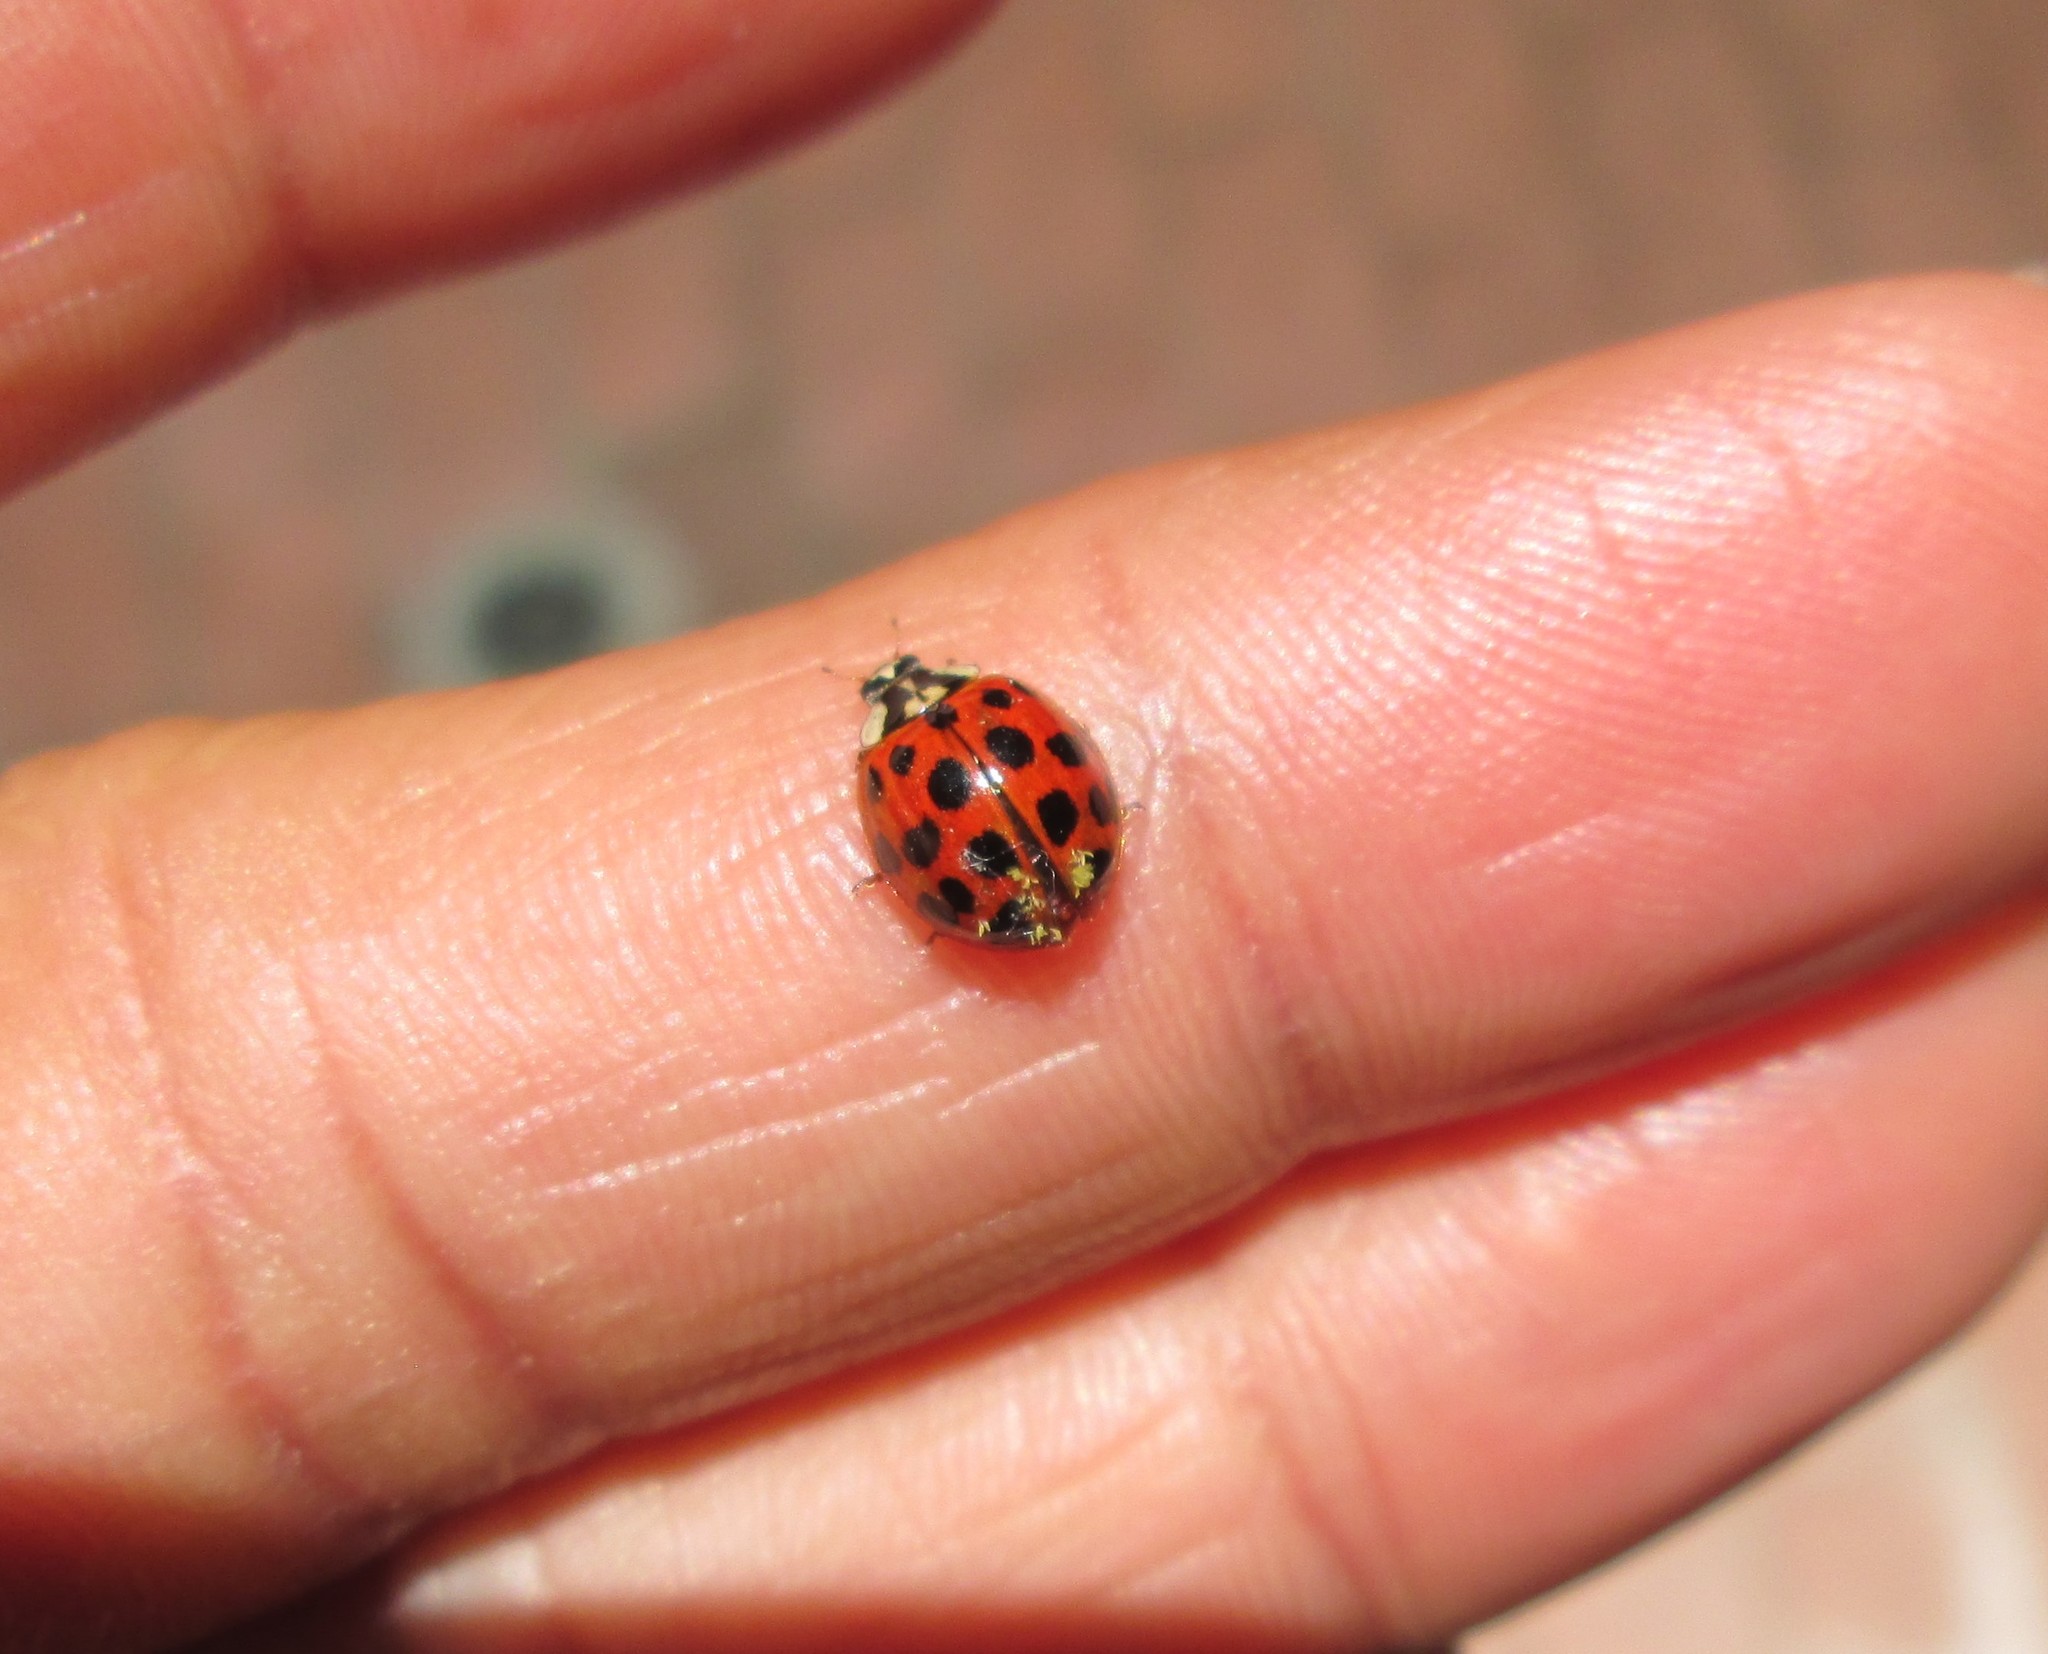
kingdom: Animalia
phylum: Arthropoda
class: Insecta
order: Coleoptera
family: Coccinellidae
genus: Harmonia
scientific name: Harmonia axyridis
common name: Harlequin ladybird
